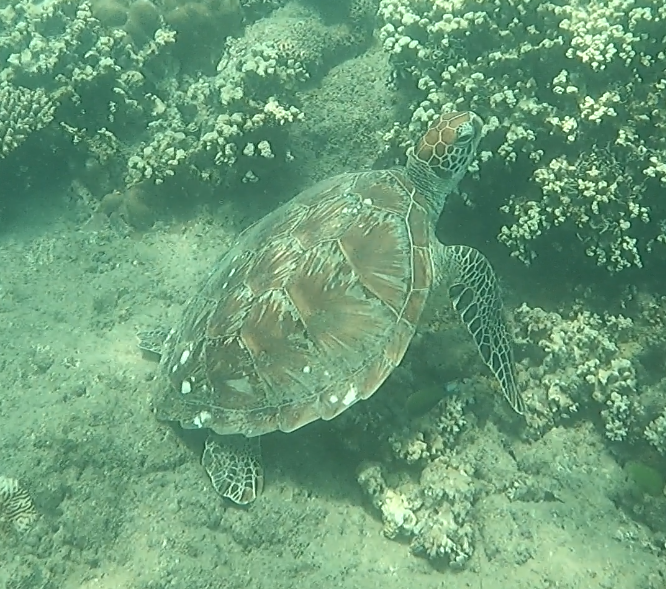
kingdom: Animalia
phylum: Chordata
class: Testudines
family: Cheloniidae
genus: Chelonia
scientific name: Chelonia mydas
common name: Green turtle
